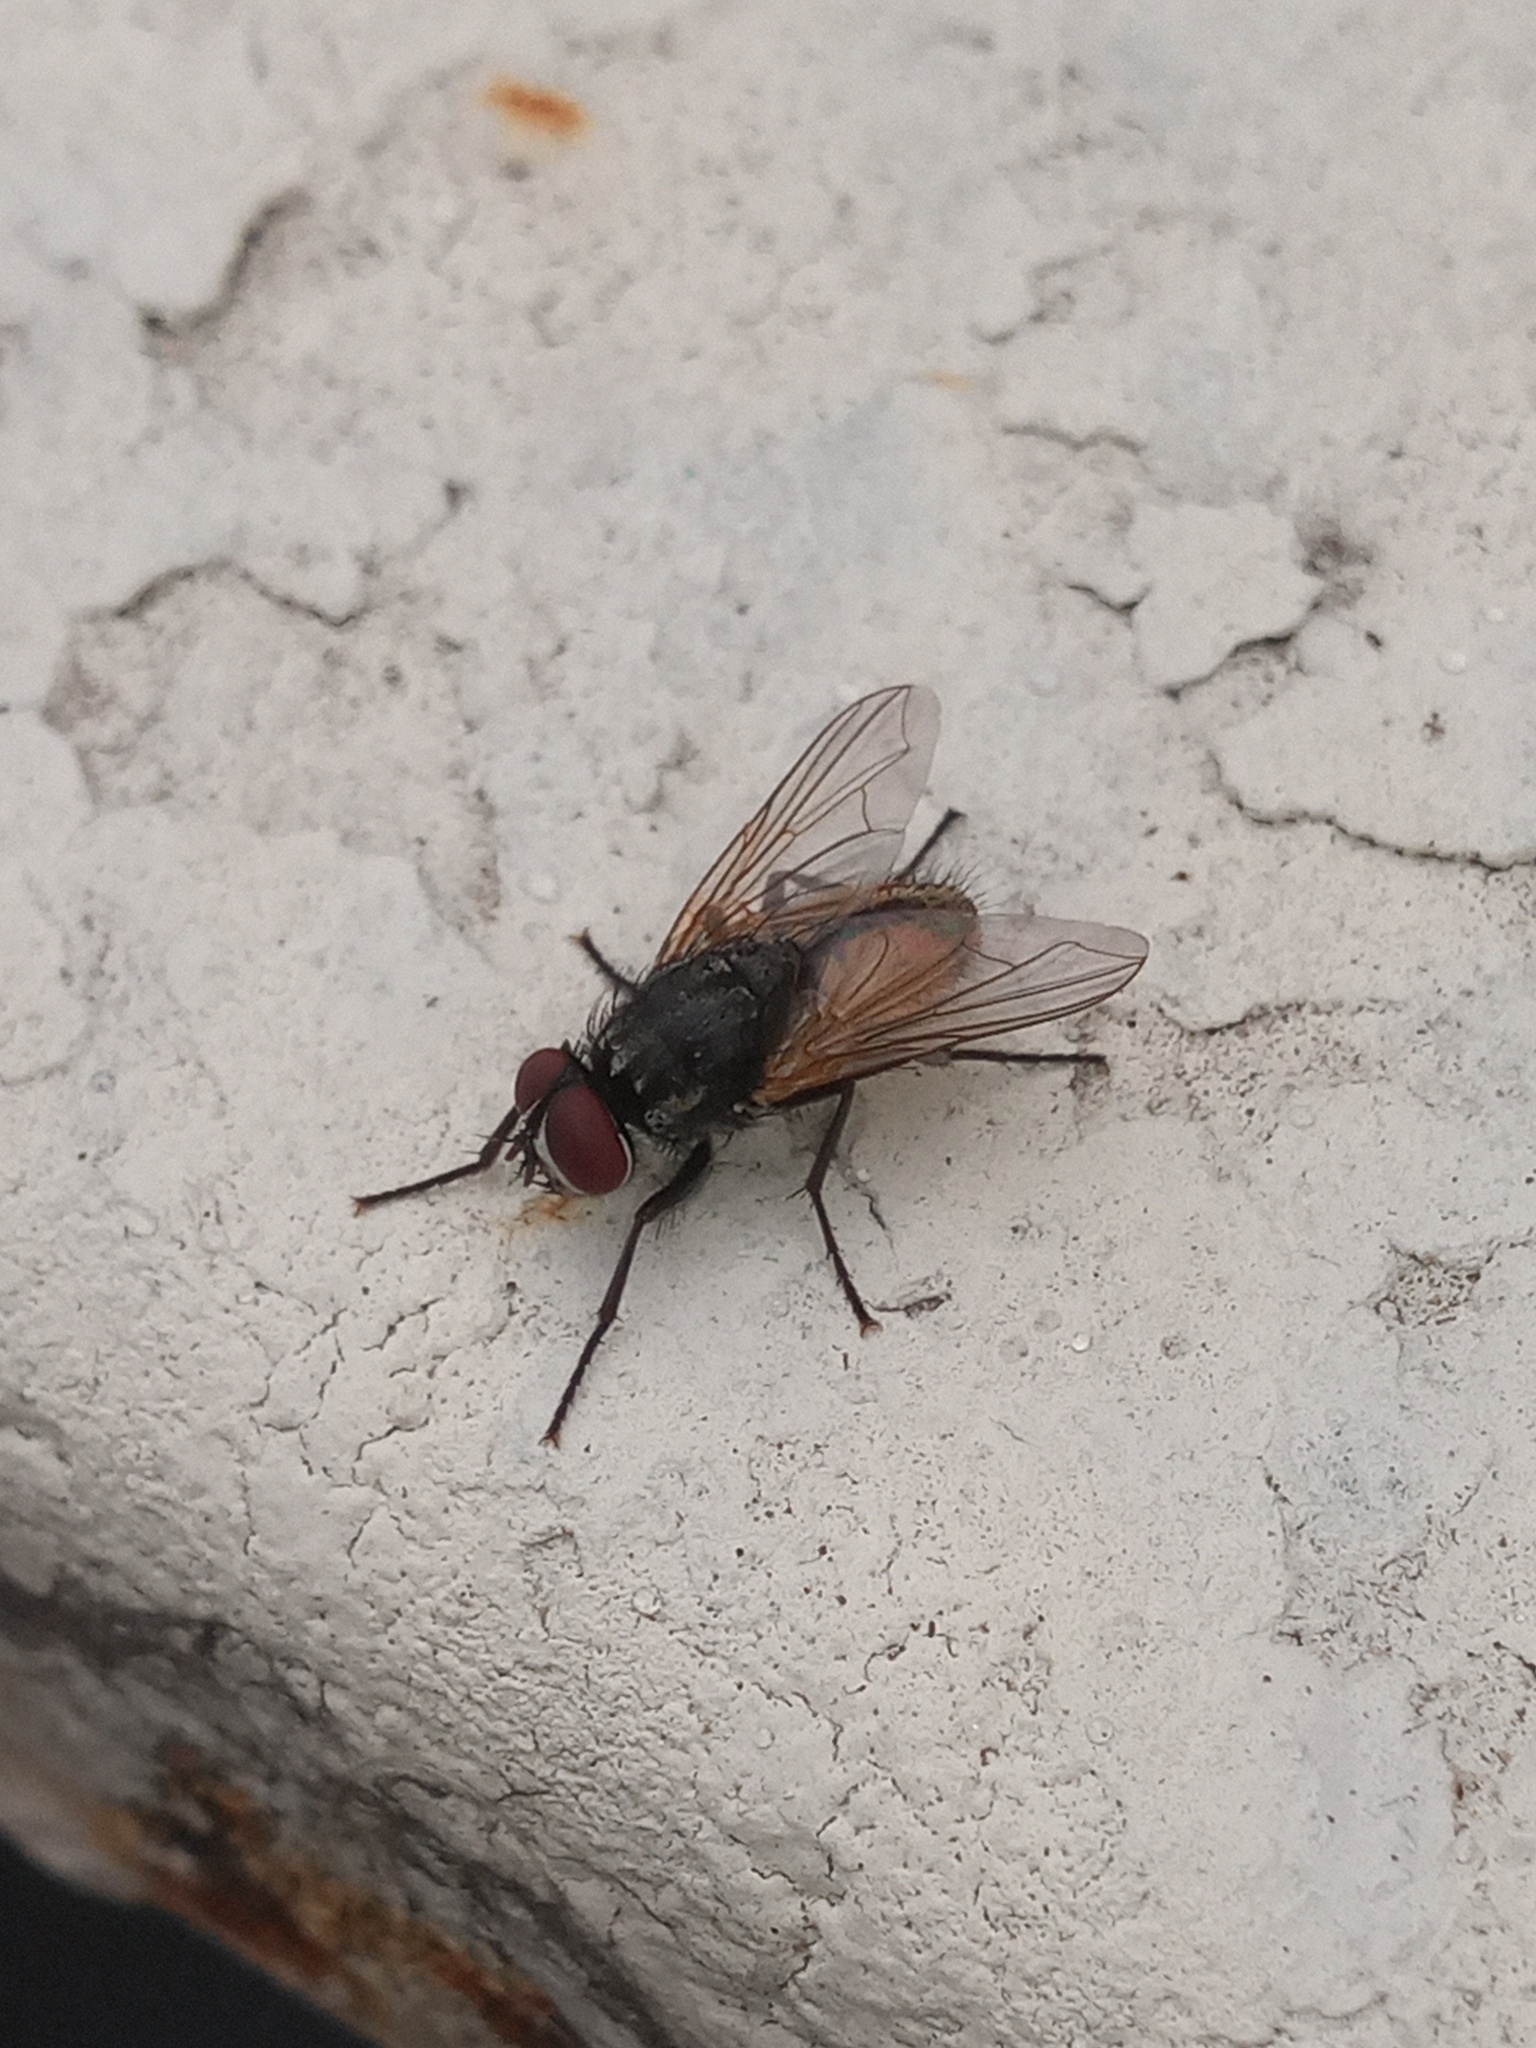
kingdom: Animalia
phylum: Arthropoda
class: Insecta
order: Diptera
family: Muscidae
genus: Musca
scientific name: Musca domestica
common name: House fly
